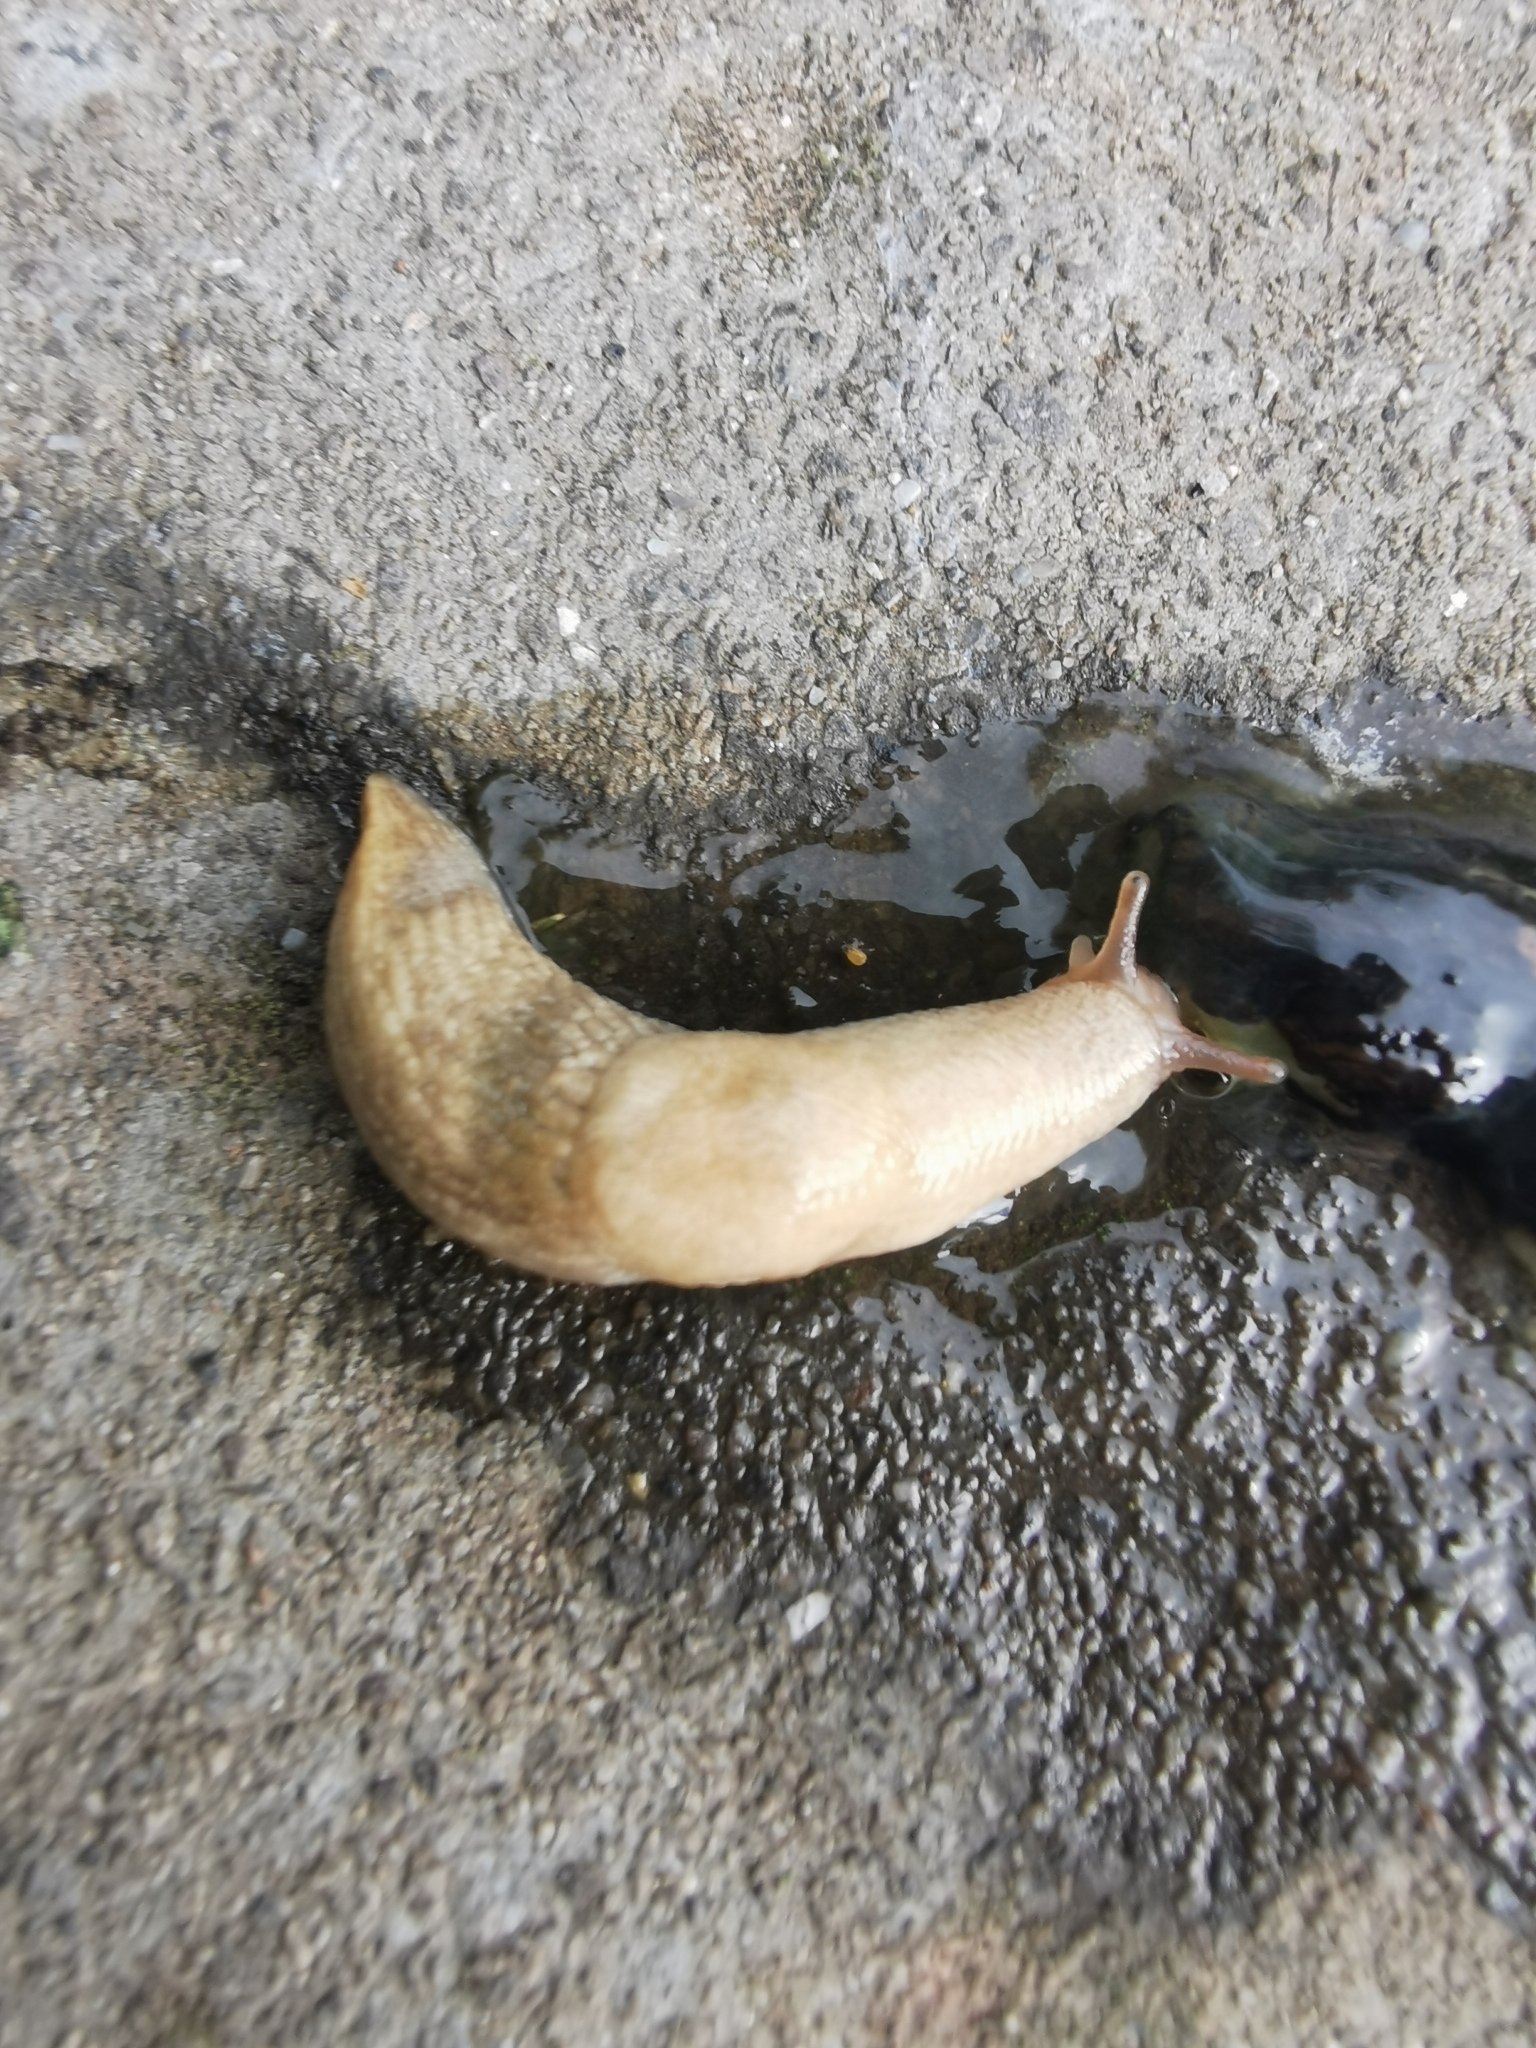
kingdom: Animalia
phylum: Mollusca
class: Gastropoda
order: Stylommatophora
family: Agriolimacidae
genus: Deroceras
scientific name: Deroceras reticulatum
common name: Gray field slug
